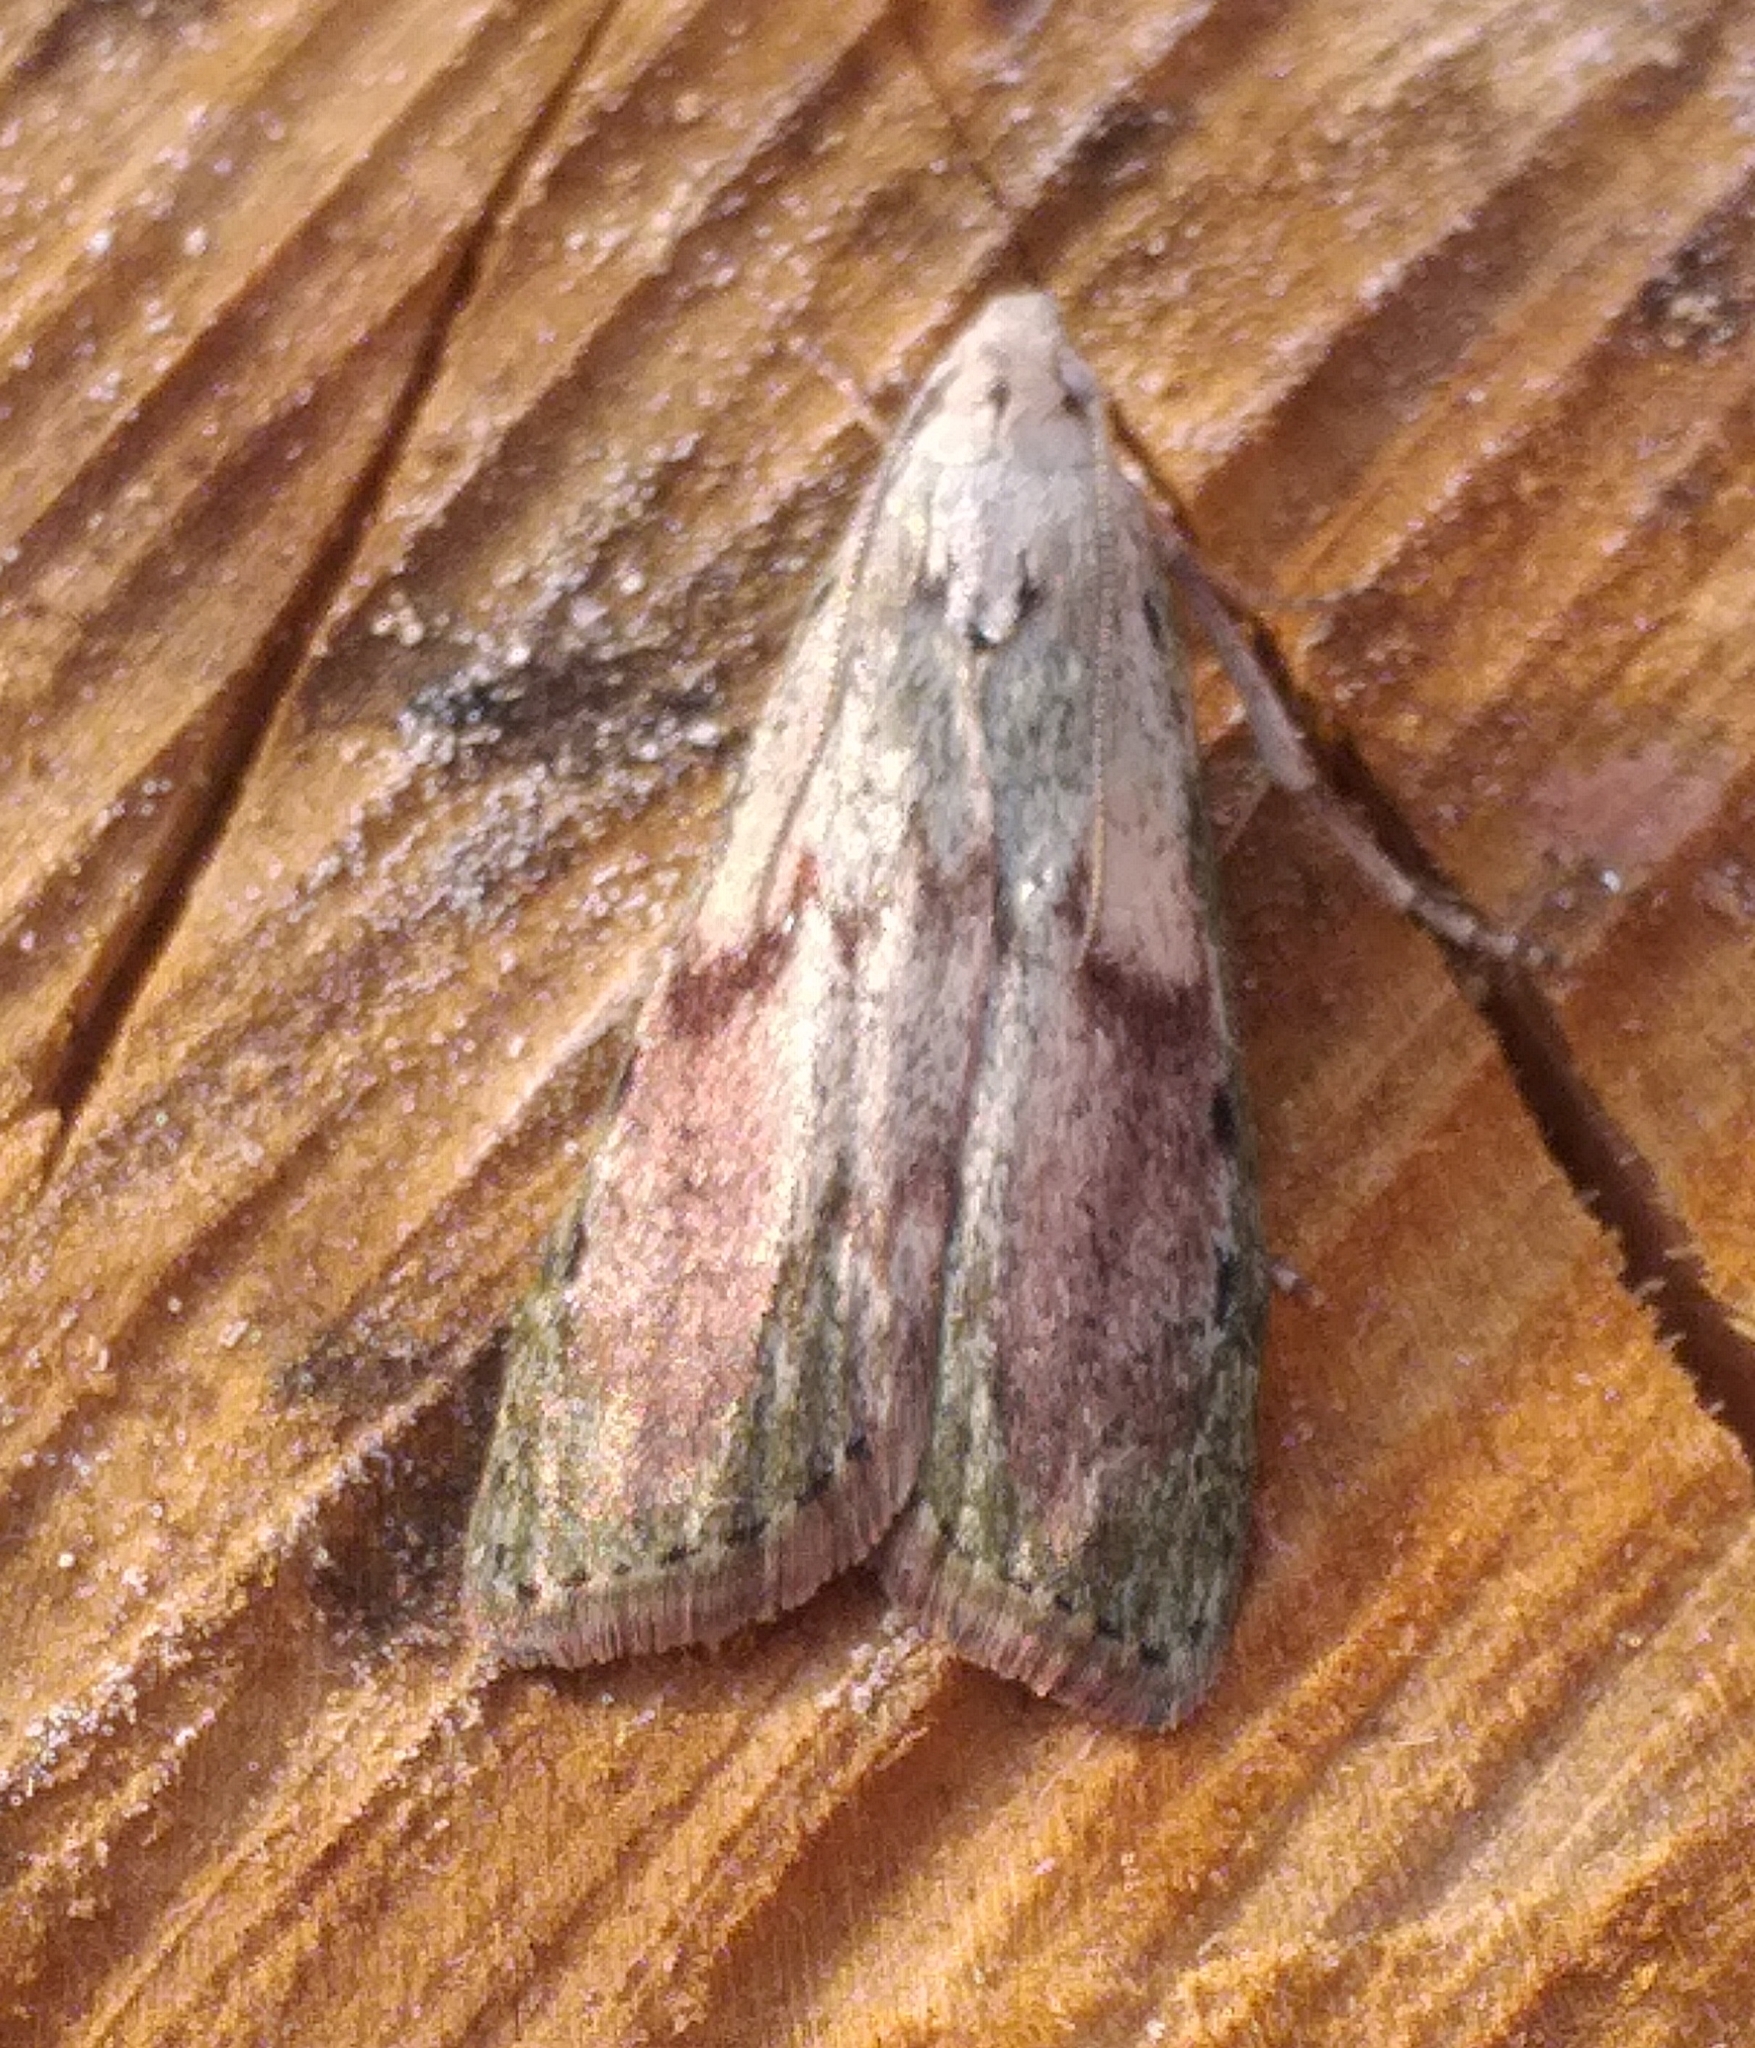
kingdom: Animalia
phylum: Arthropoda
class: Insecta
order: Lepidoptera
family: Pyralidae
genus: Aphomia
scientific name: Aphomia sociella
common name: Bee moth
